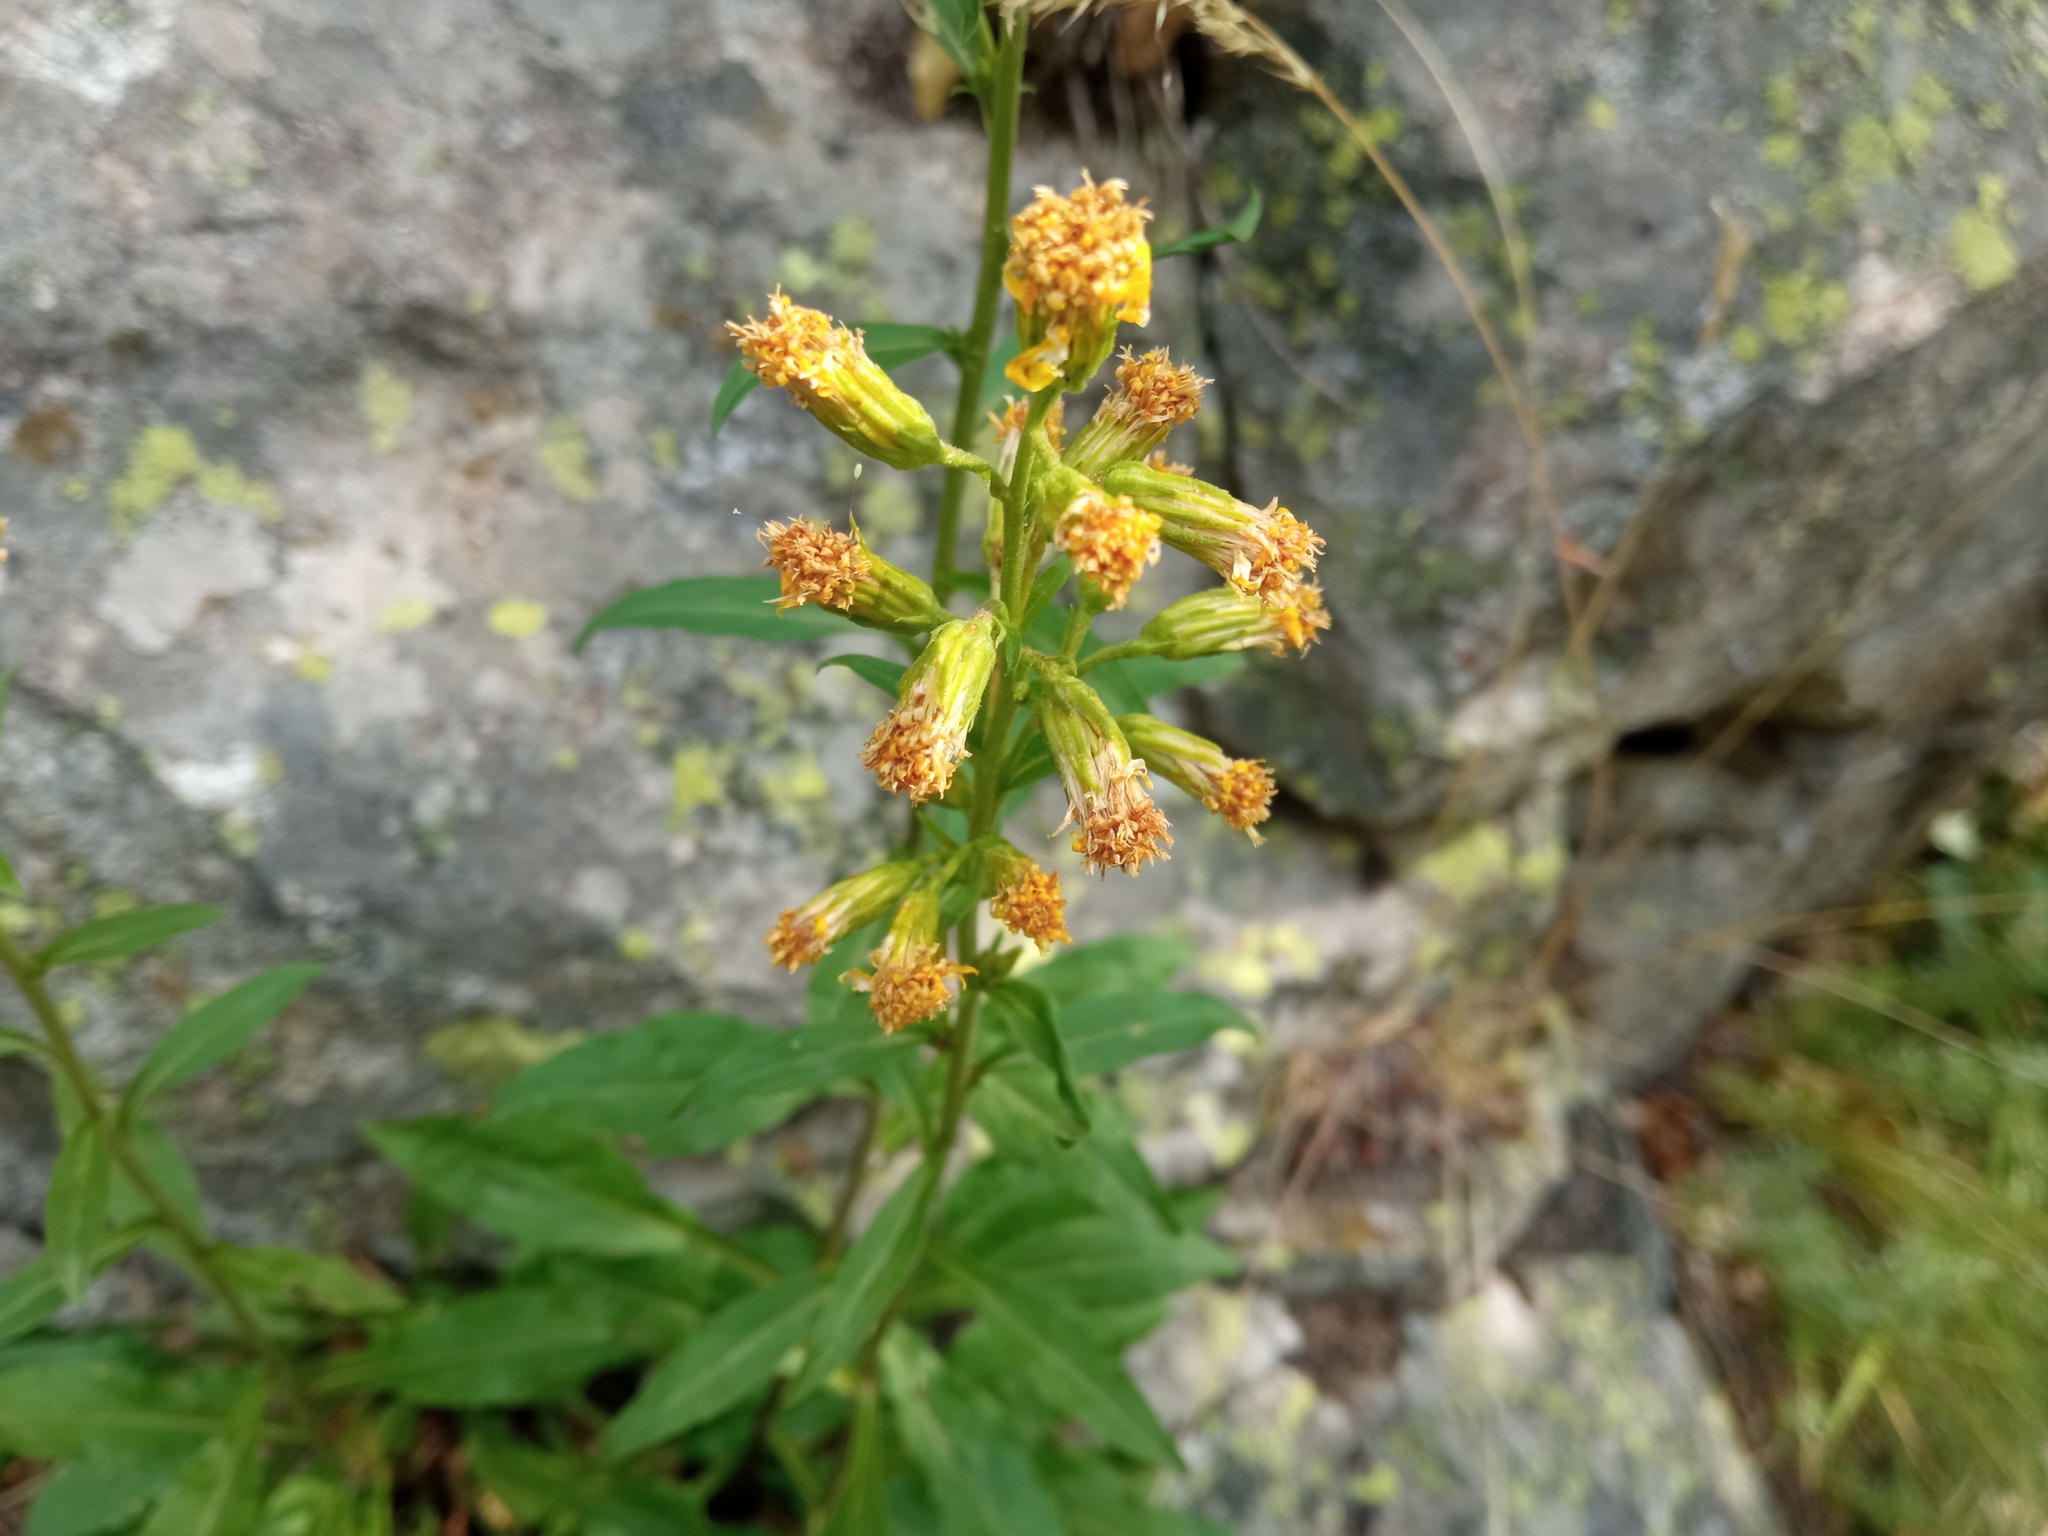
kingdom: Plantae
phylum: Tracheophyta
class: Magnoliopsida
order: Asterales
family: Asteraceae
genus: Solidago
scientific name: Solidago virgaurea
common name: Goldenrod
